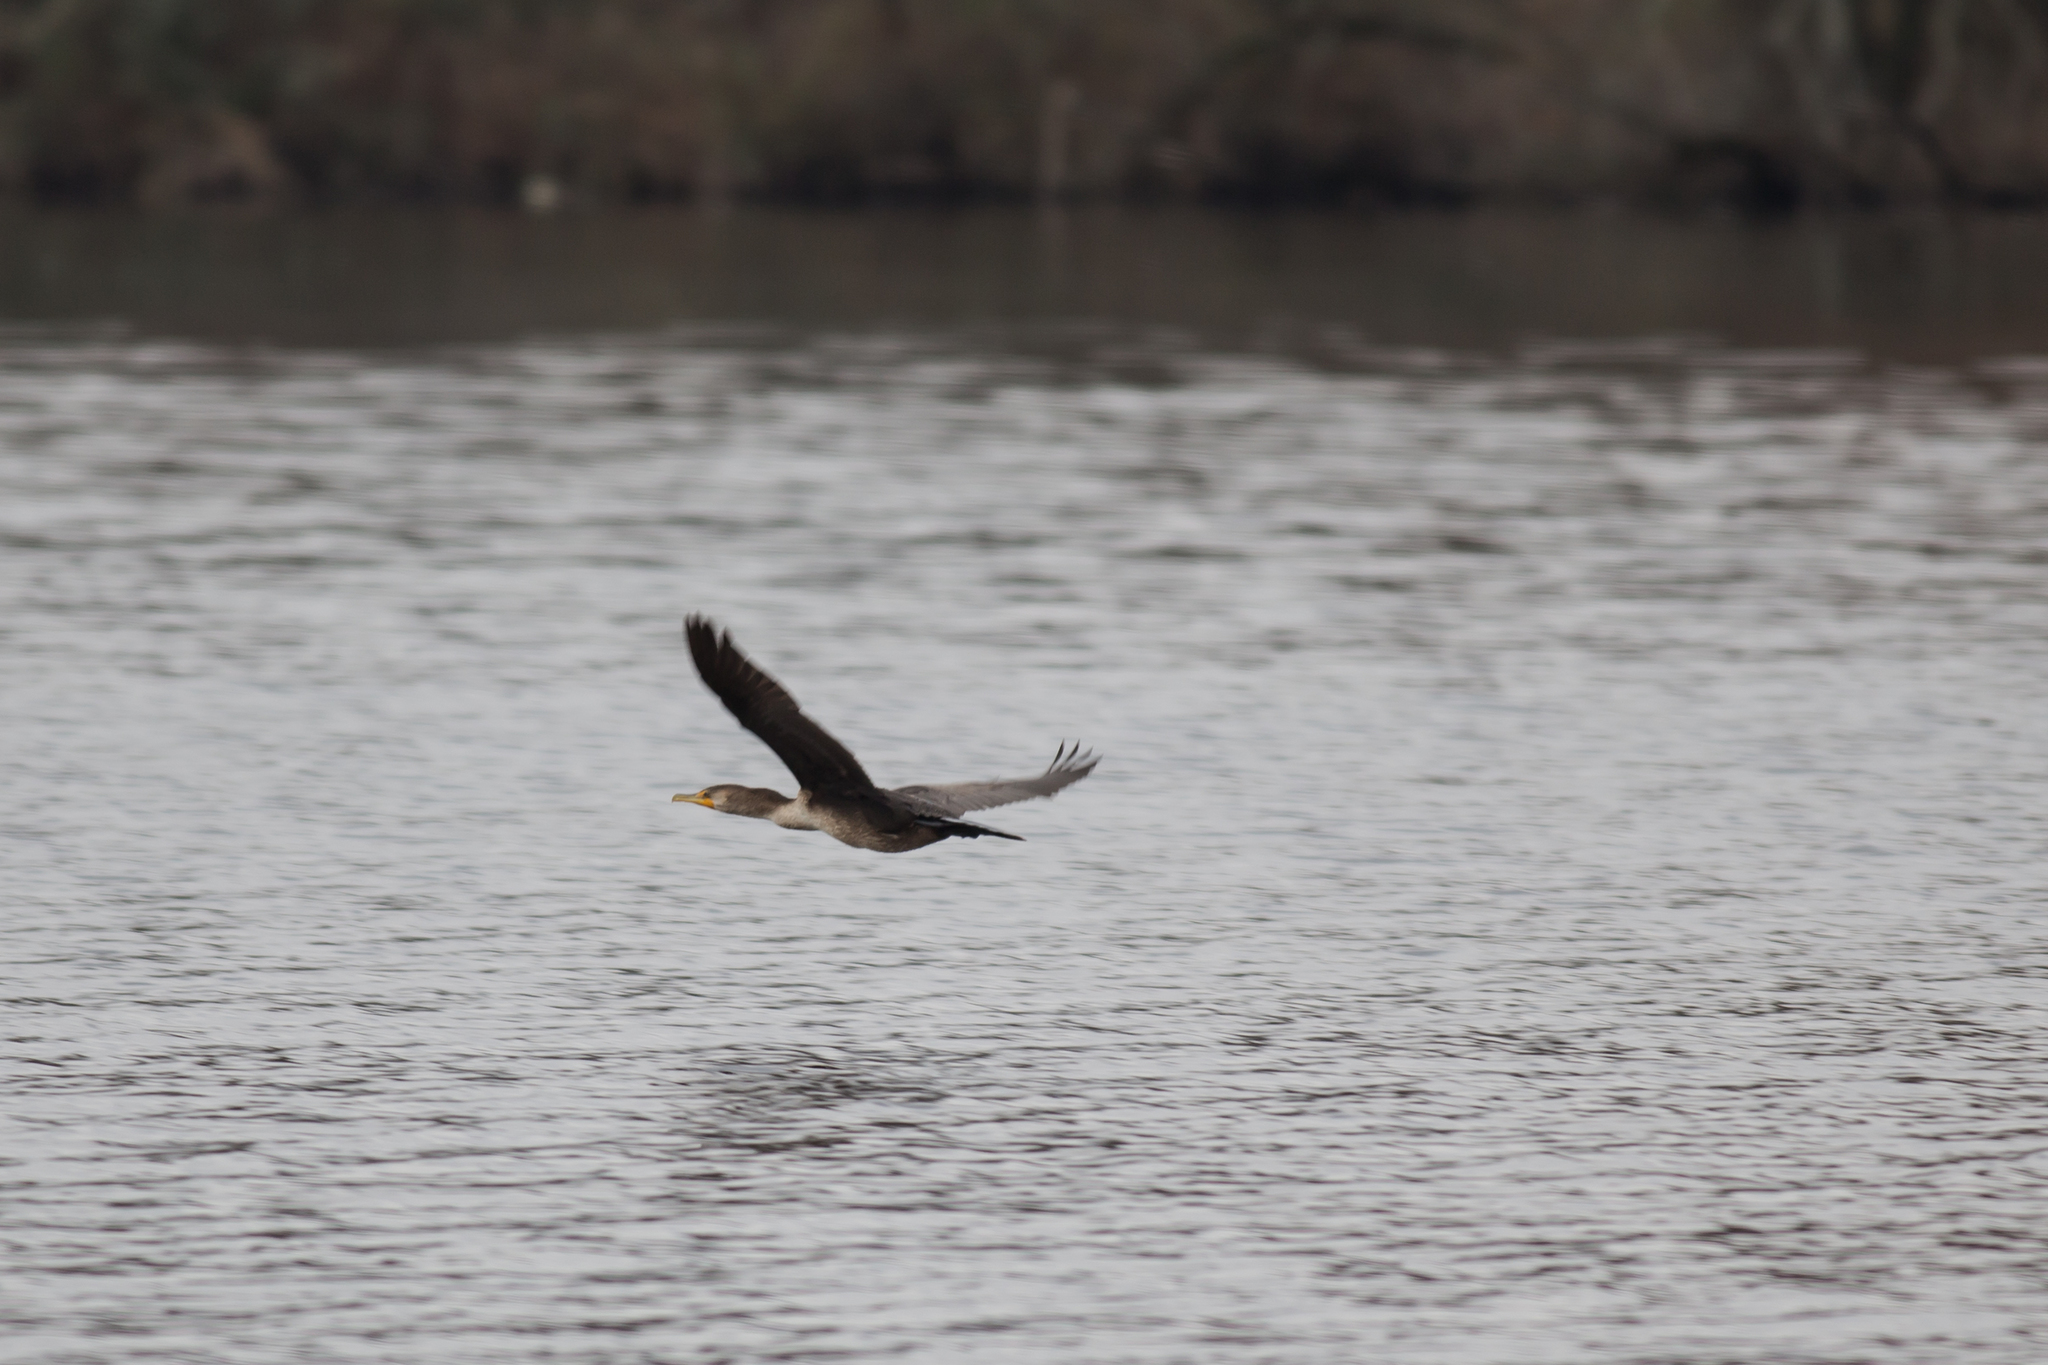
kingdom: Animalia
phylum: Chordata
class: Aves
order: Suliformes
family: Phalacrocoracidae
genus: Phalacrocorax
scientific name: Phalacrocorax auritus
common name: Double-crested cormorant
